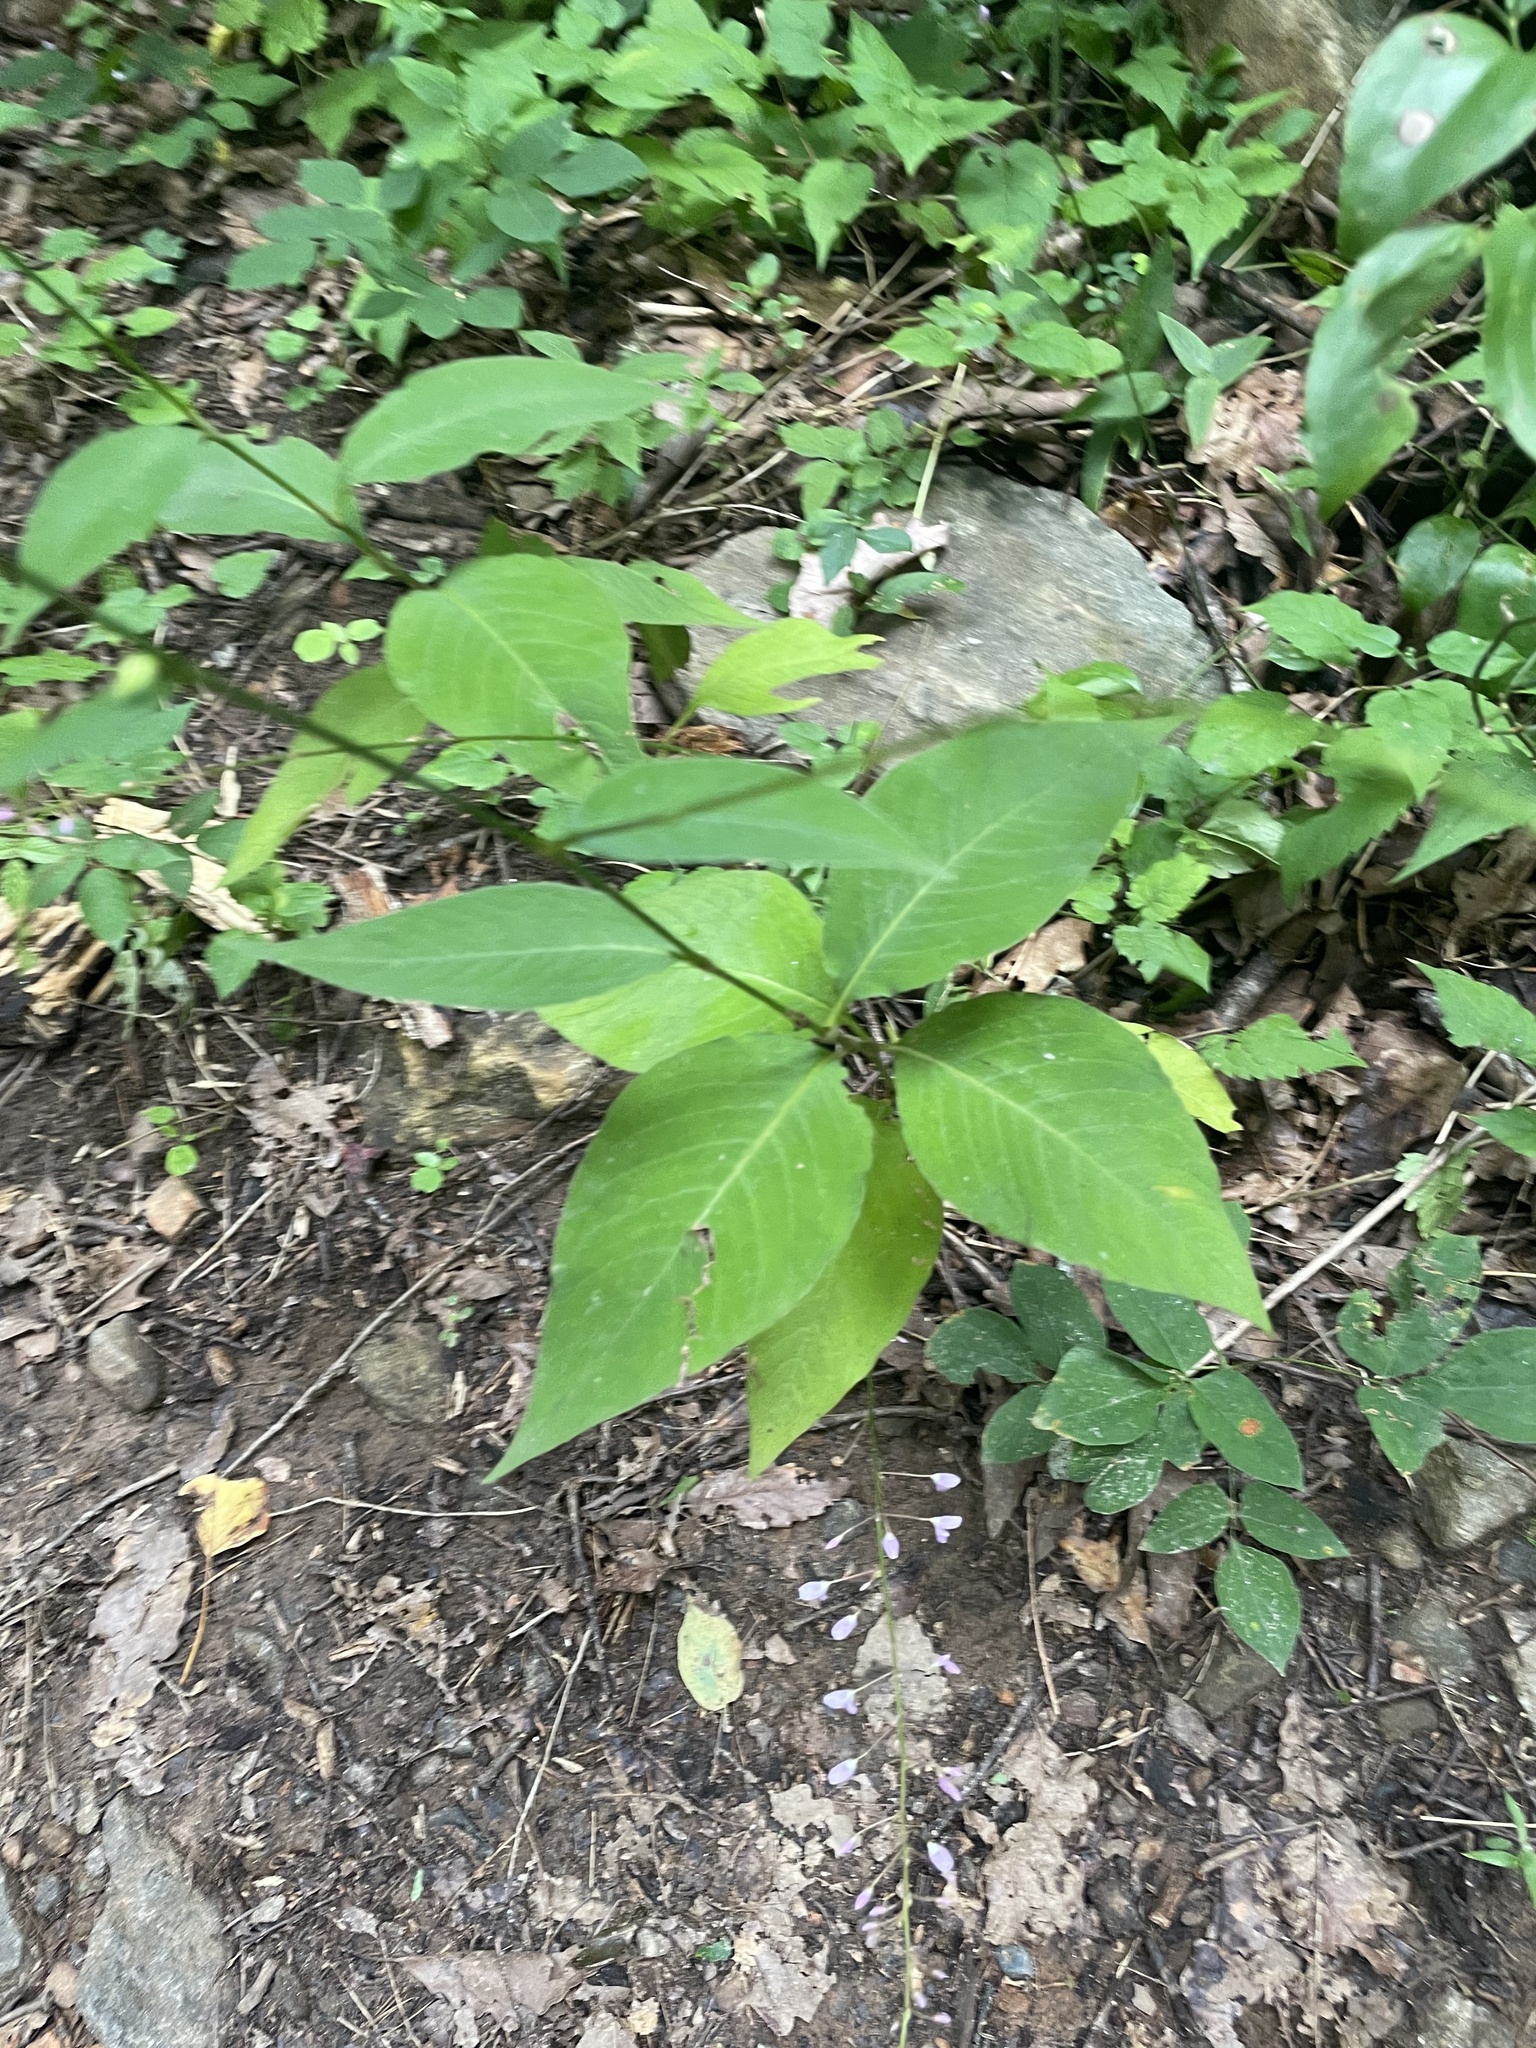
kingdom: Plantae
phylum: Tracheophyta
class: Magnoliopsida
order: Caryophyllales
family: Polygonaceae
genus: Persicaria
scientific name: Persicaria virginiana
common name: Jumpseed
